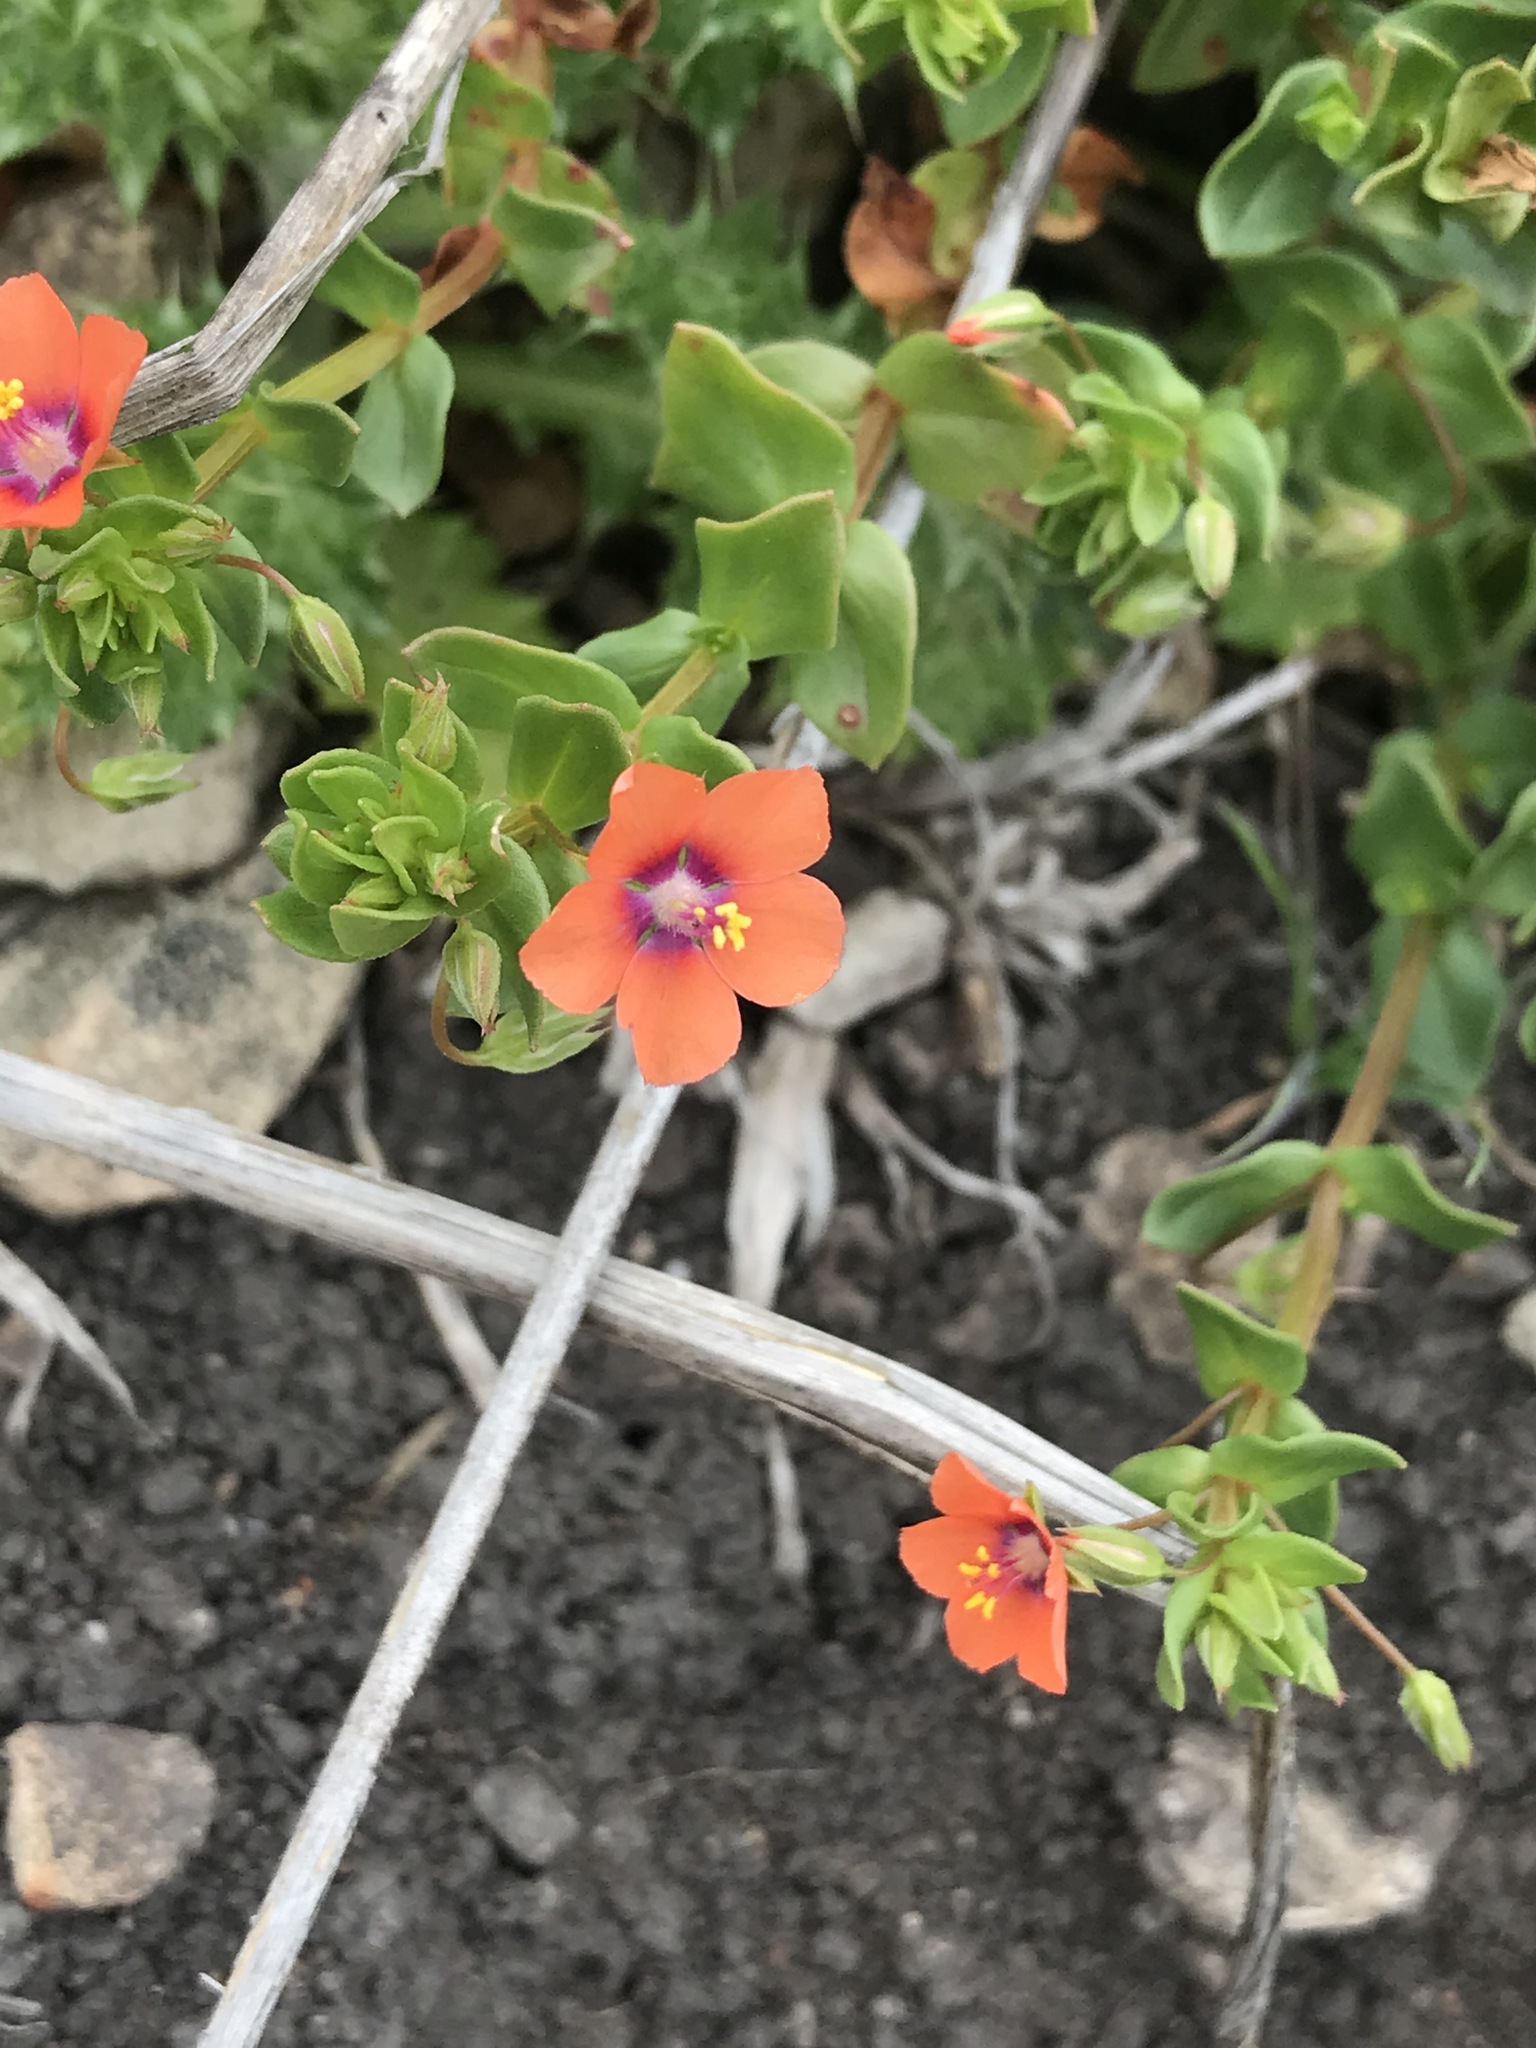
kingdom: Plantae
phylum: Tracheophyta
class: Magnoliopsida
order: Ericales
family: Primulaceae
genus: Lysimachia
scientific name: Lysimachia arvensis
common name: Scarlet pimpernel
